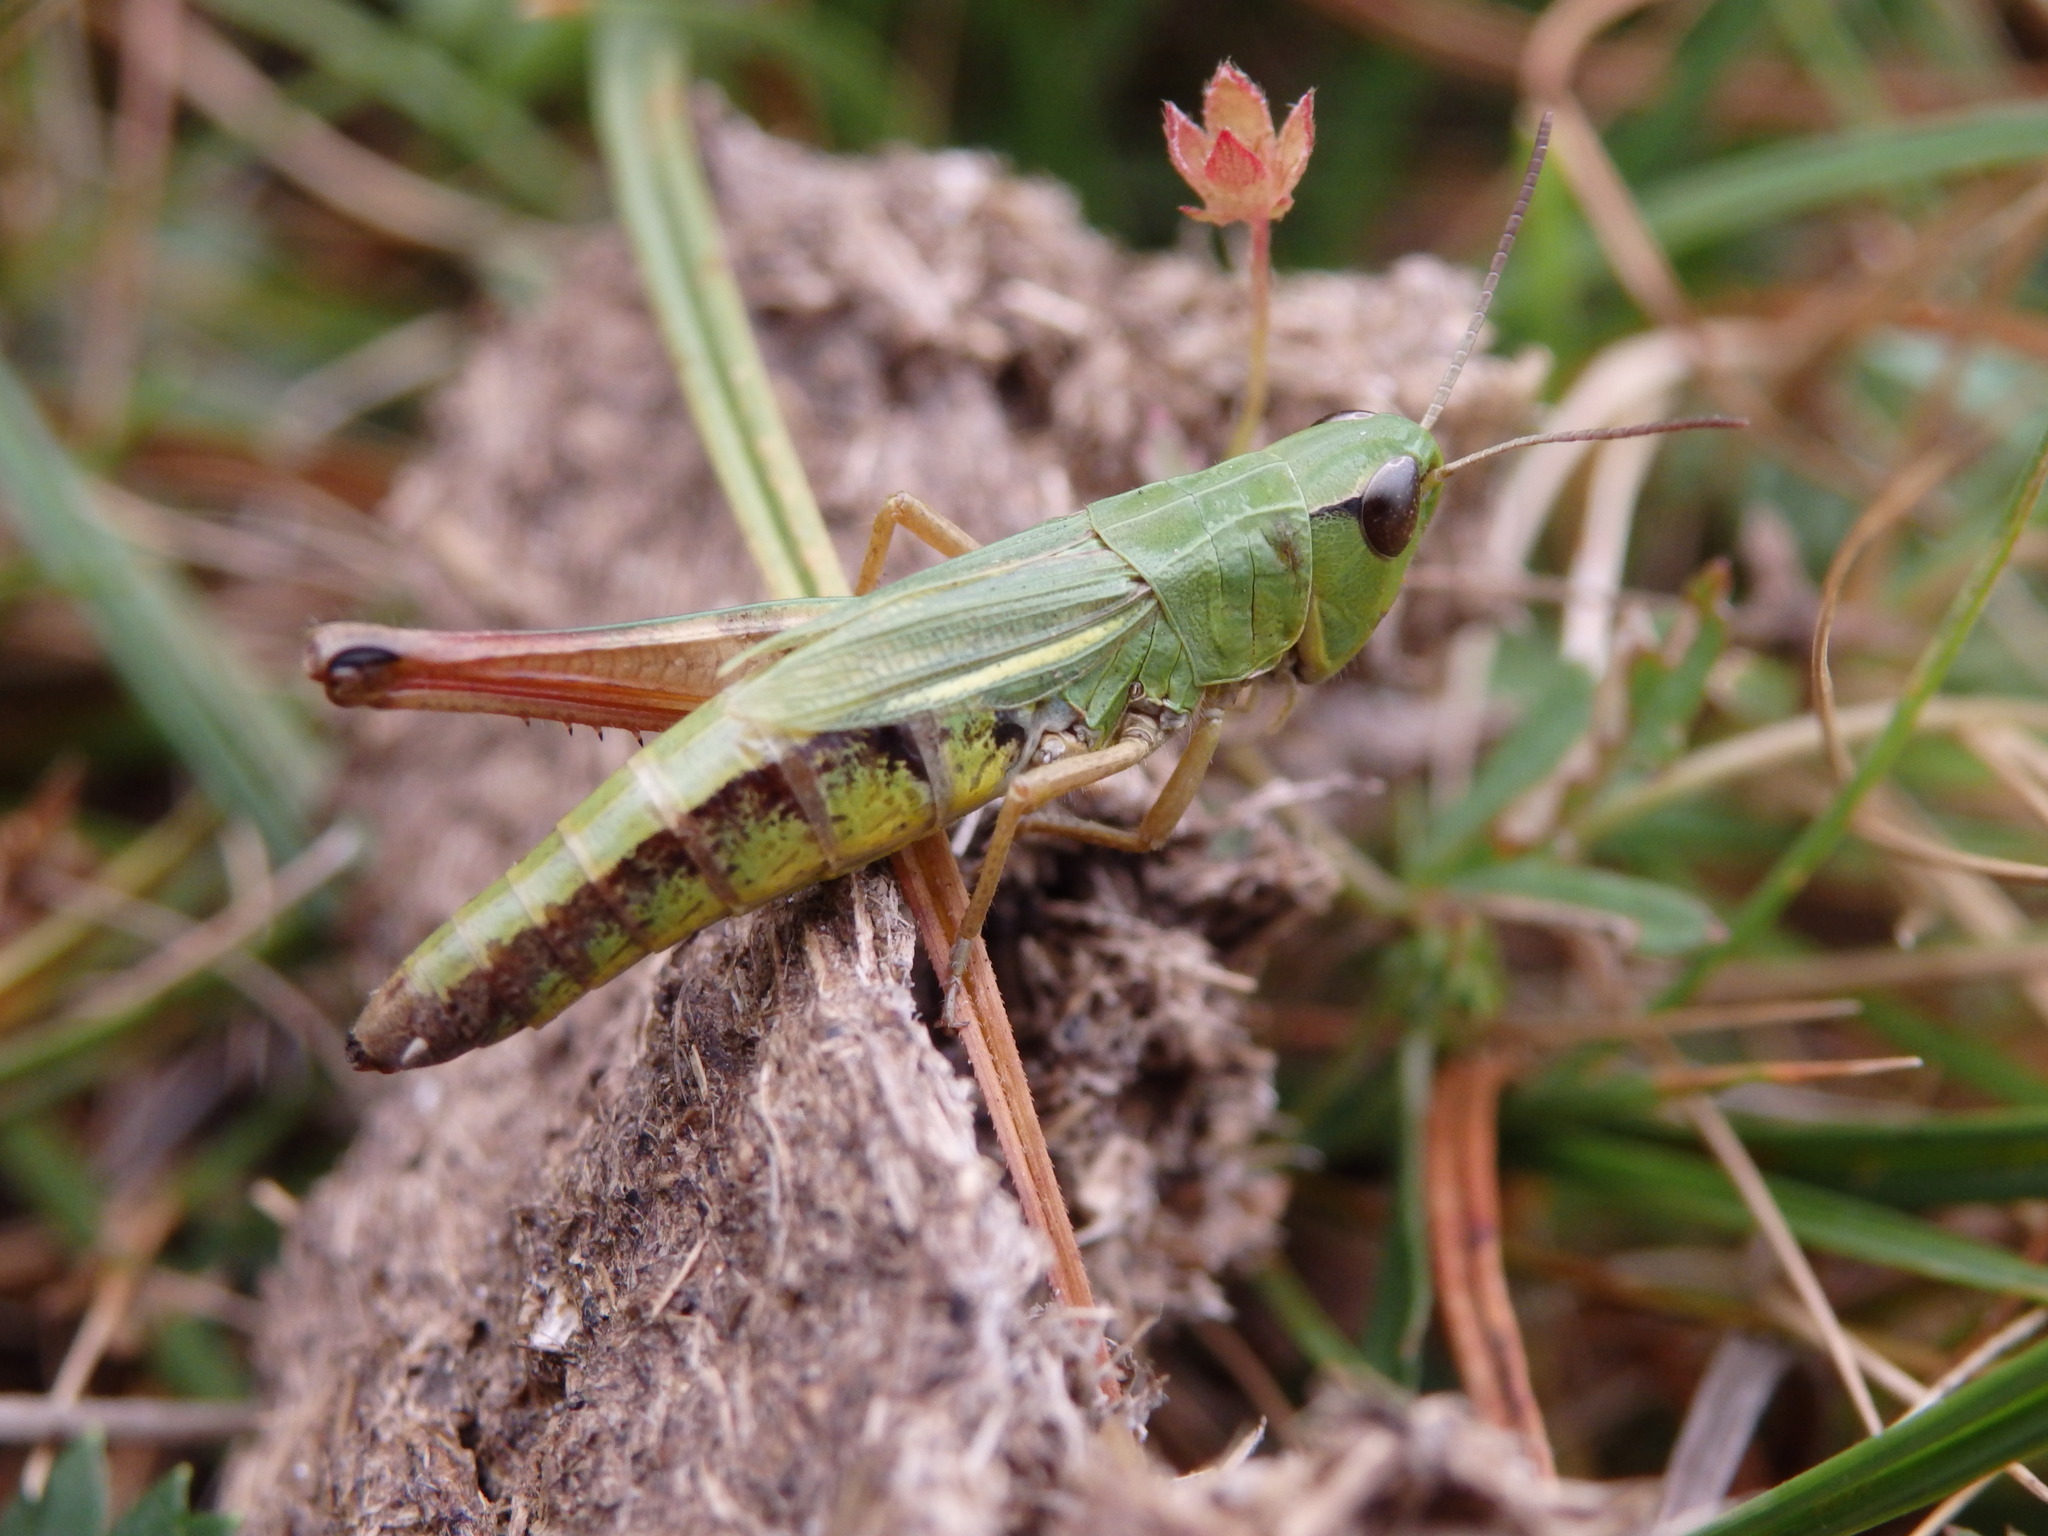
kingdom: Animalia
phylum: Arthropoda
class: Insecta
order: Orthoptera
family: Acrididae
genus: Pseudochorthippus
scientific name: Pseudochorthippus parallelus
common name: Meadow grasshopper
